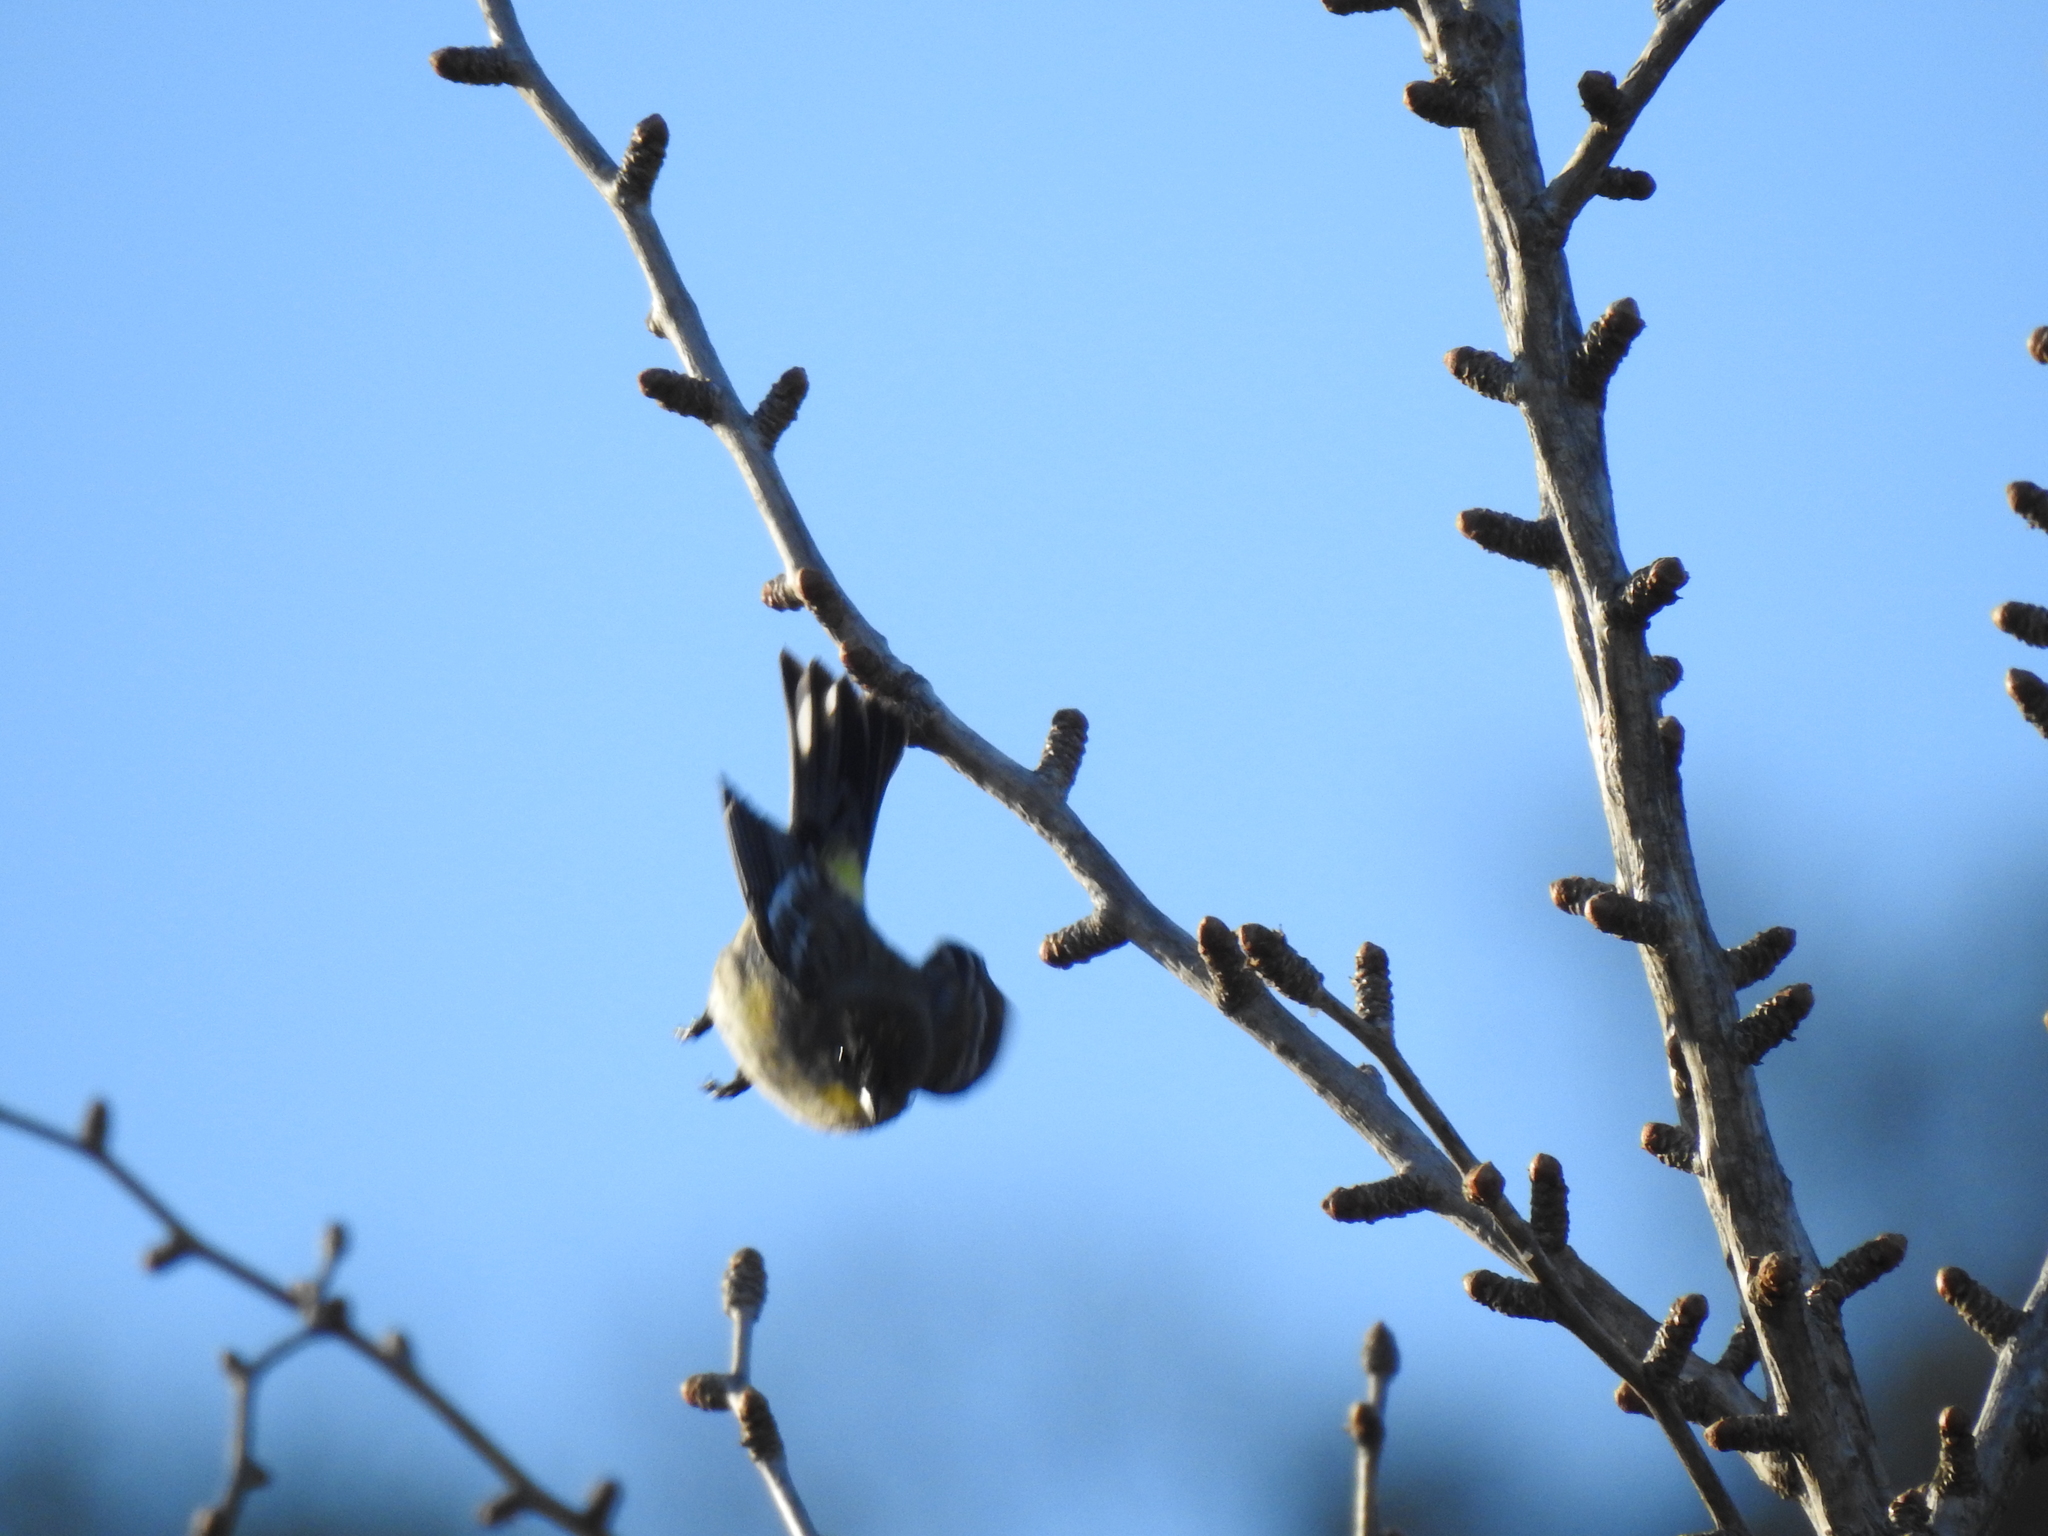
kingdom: Animalia
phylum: Chordata
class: Aves
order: Passeriformes
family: Parulidae
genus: Setophaga
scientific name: Setophaga coronata
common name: Myrtle warbler
